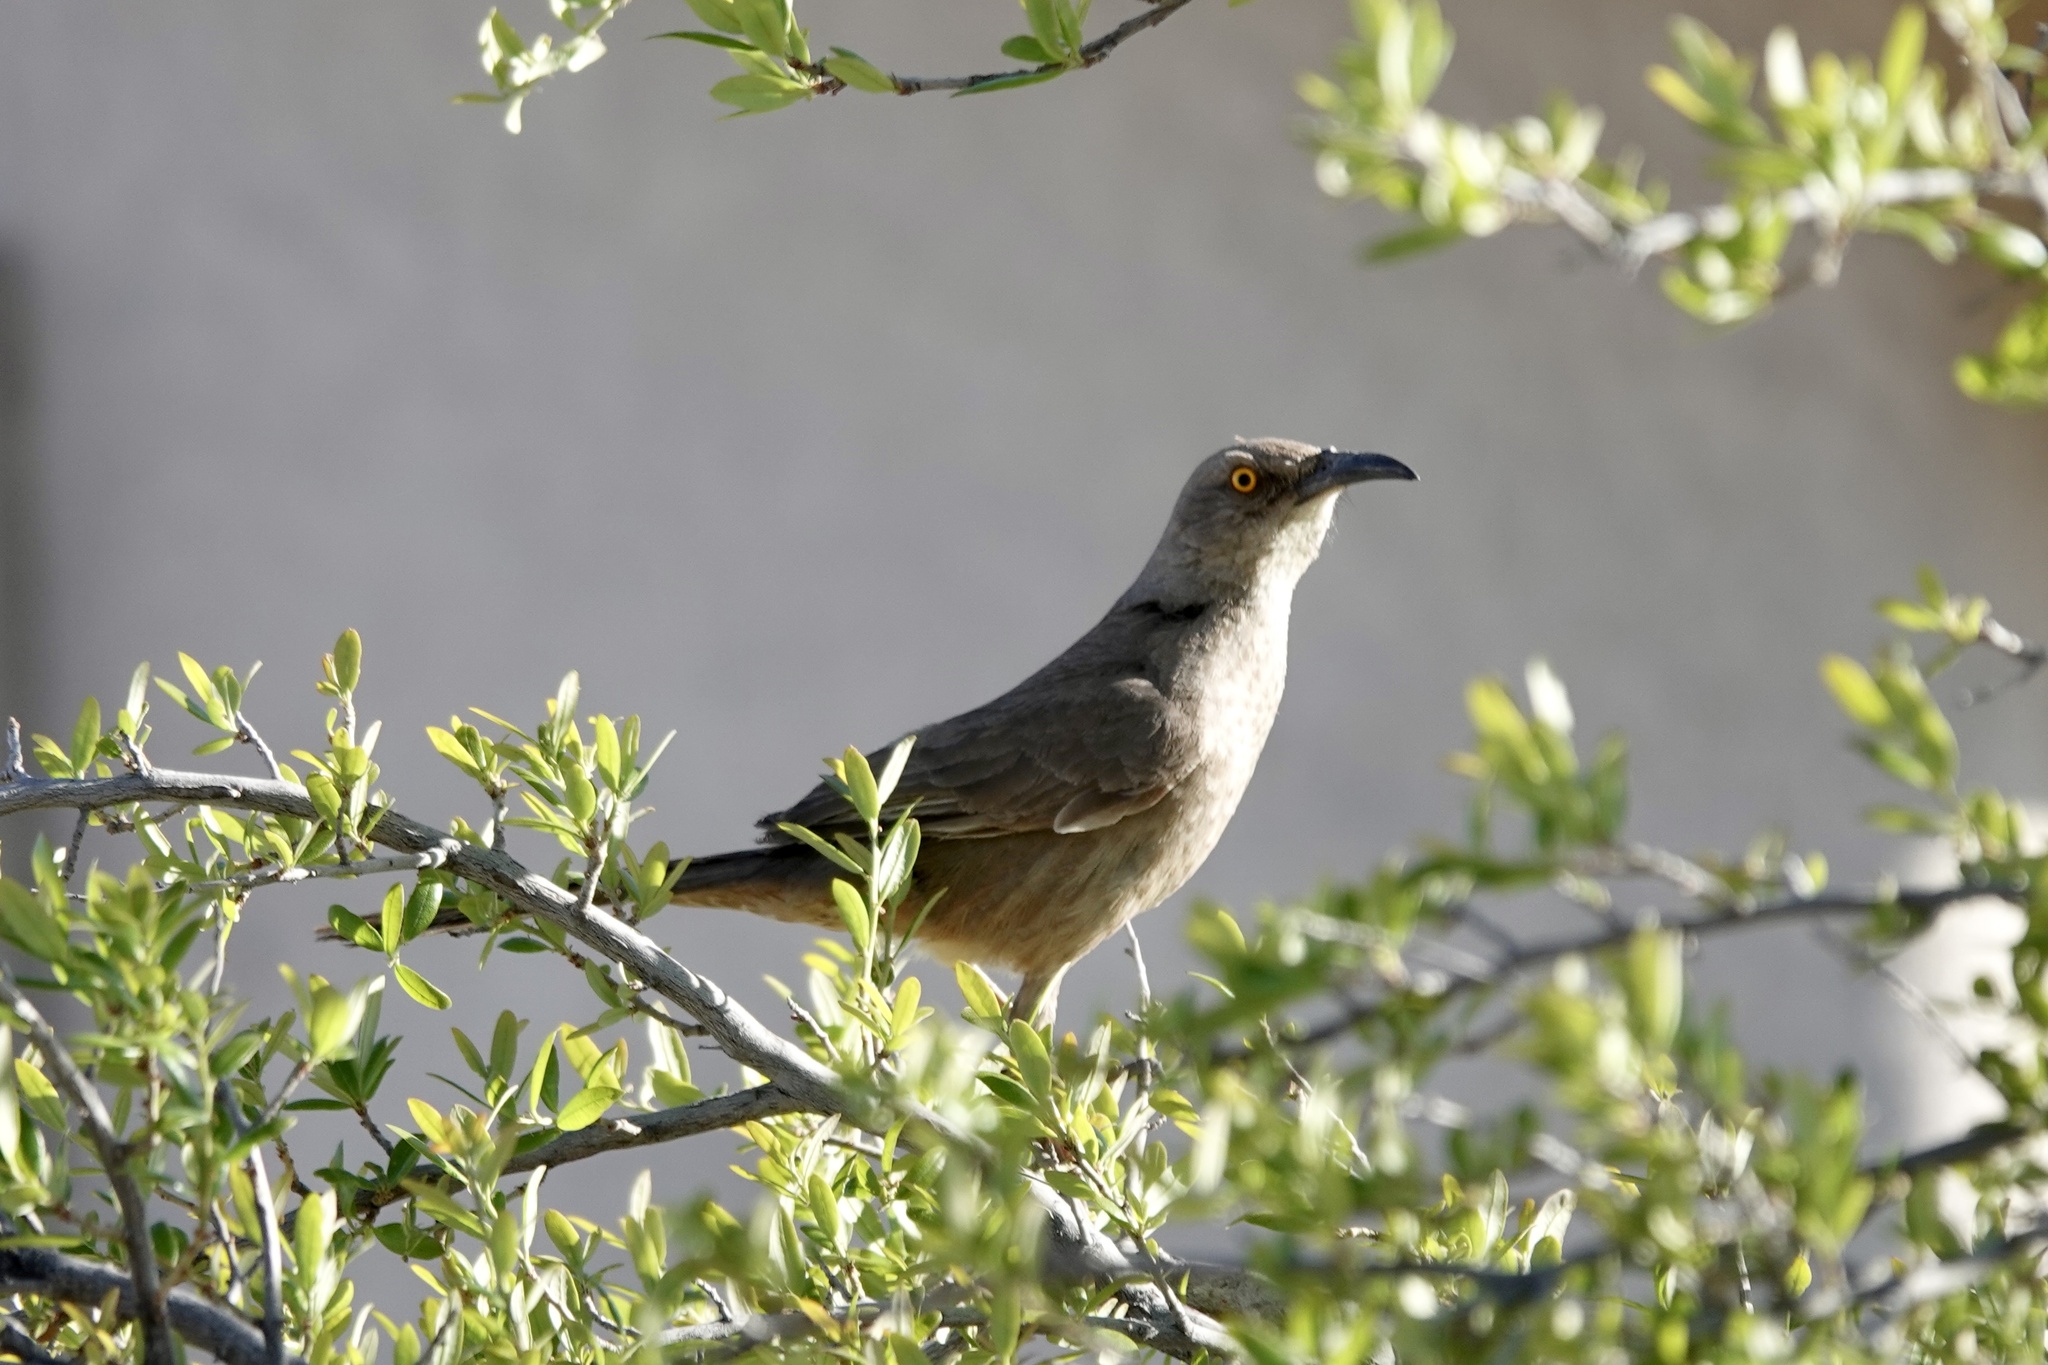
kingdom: Animalia
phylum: Chordata
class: Aves
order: Passeriformes
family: Mimidae
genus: Toxostoma
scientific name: Toxostoma curvirostre
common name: Curve-billed thrasher
